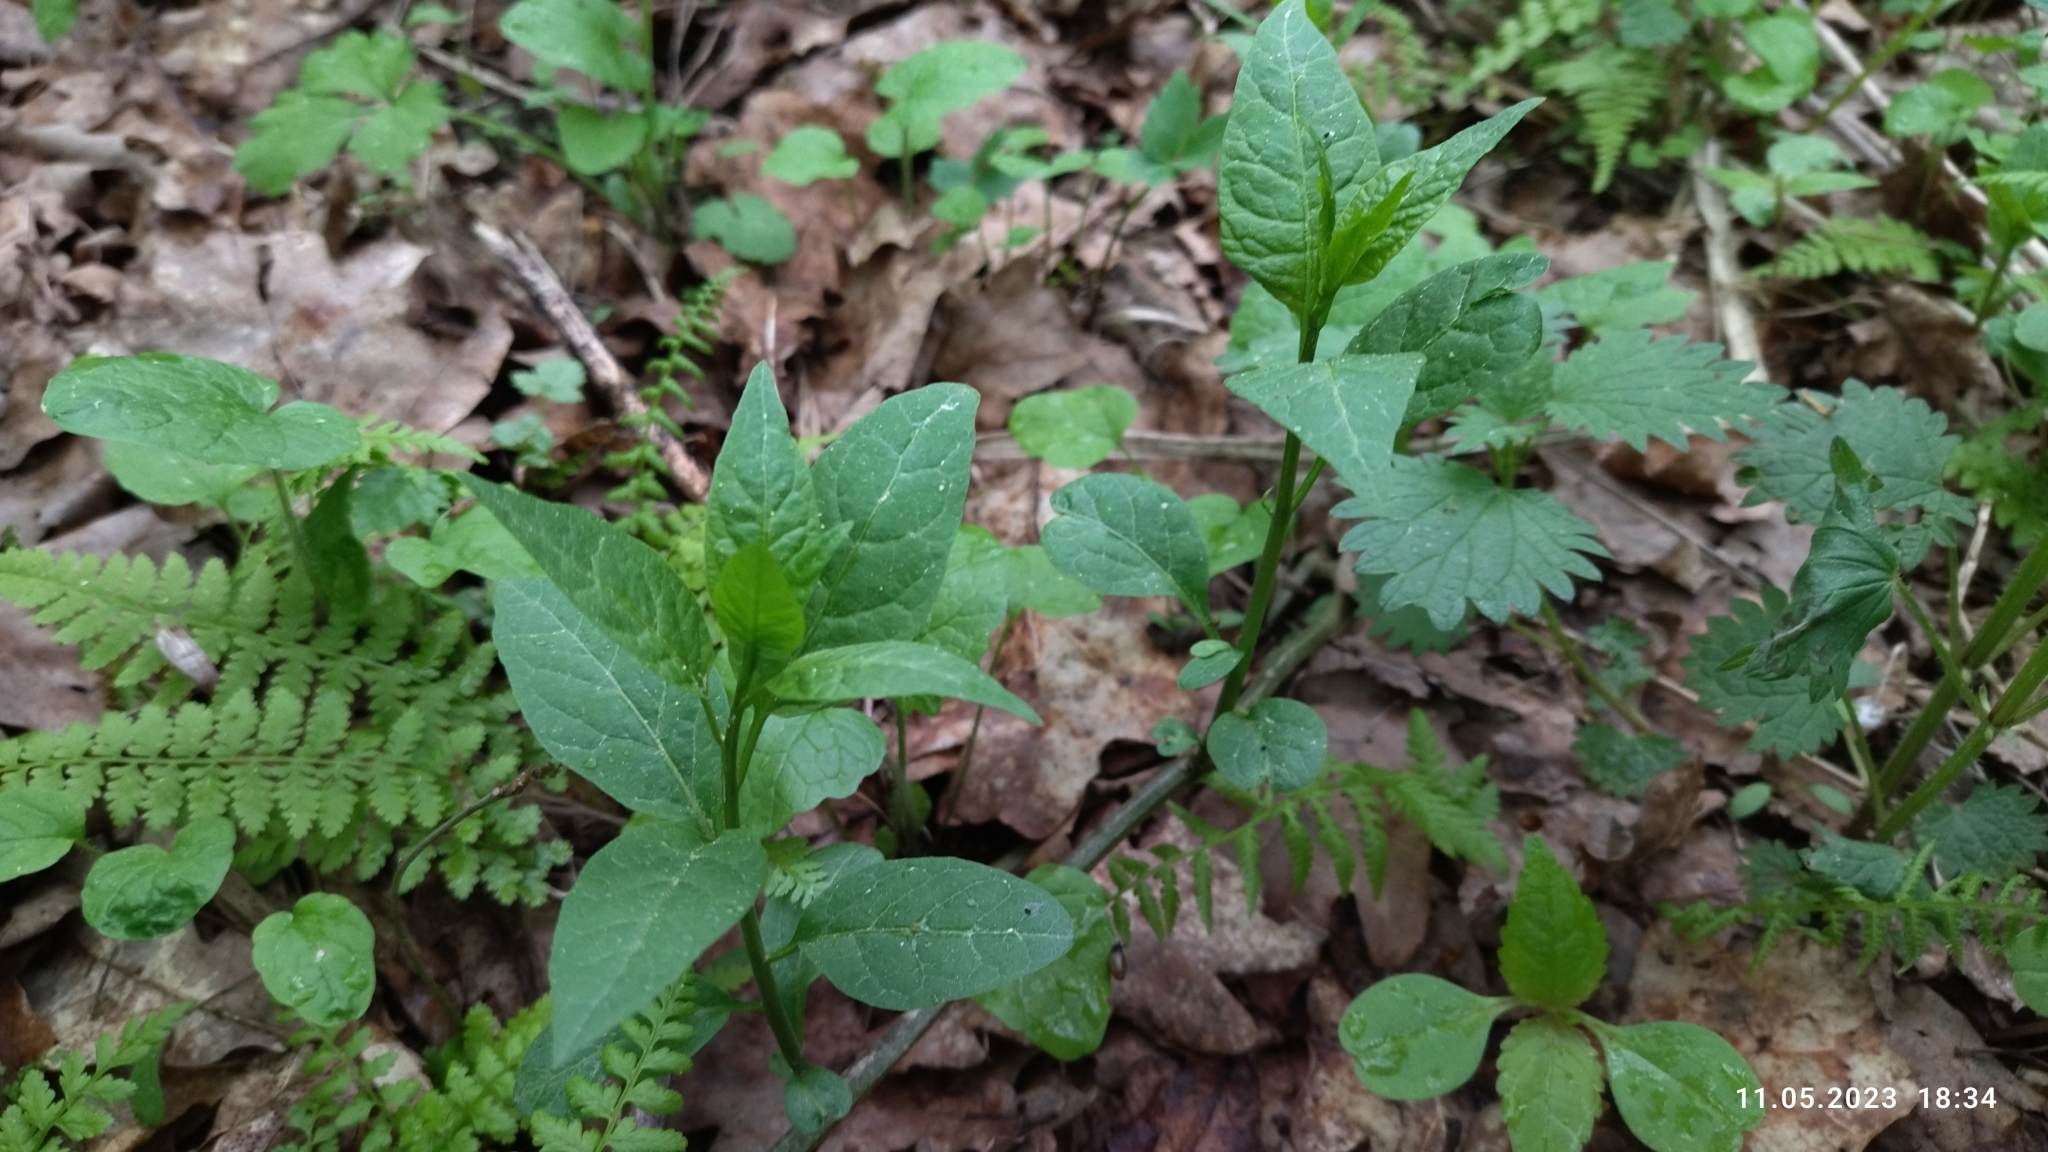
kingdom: Plantae
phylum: Tracheophyta
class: Magnoliopsida
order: Solanales
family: Solanaceae
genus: Solanum
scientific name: Solanum dulcamara
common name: Climbing nightshade
